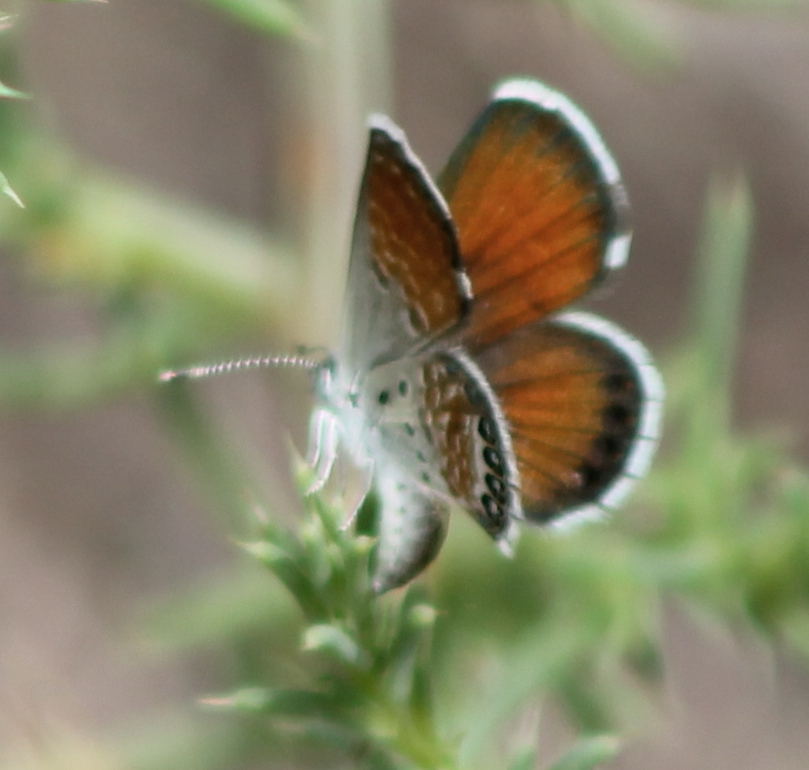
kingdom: Animalia
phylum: Arthropoda
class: Insecta
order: Lepidoptera
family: Lycaenidae
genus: Brephidium
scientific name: Brephidium exilis
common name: Pygmy blue
